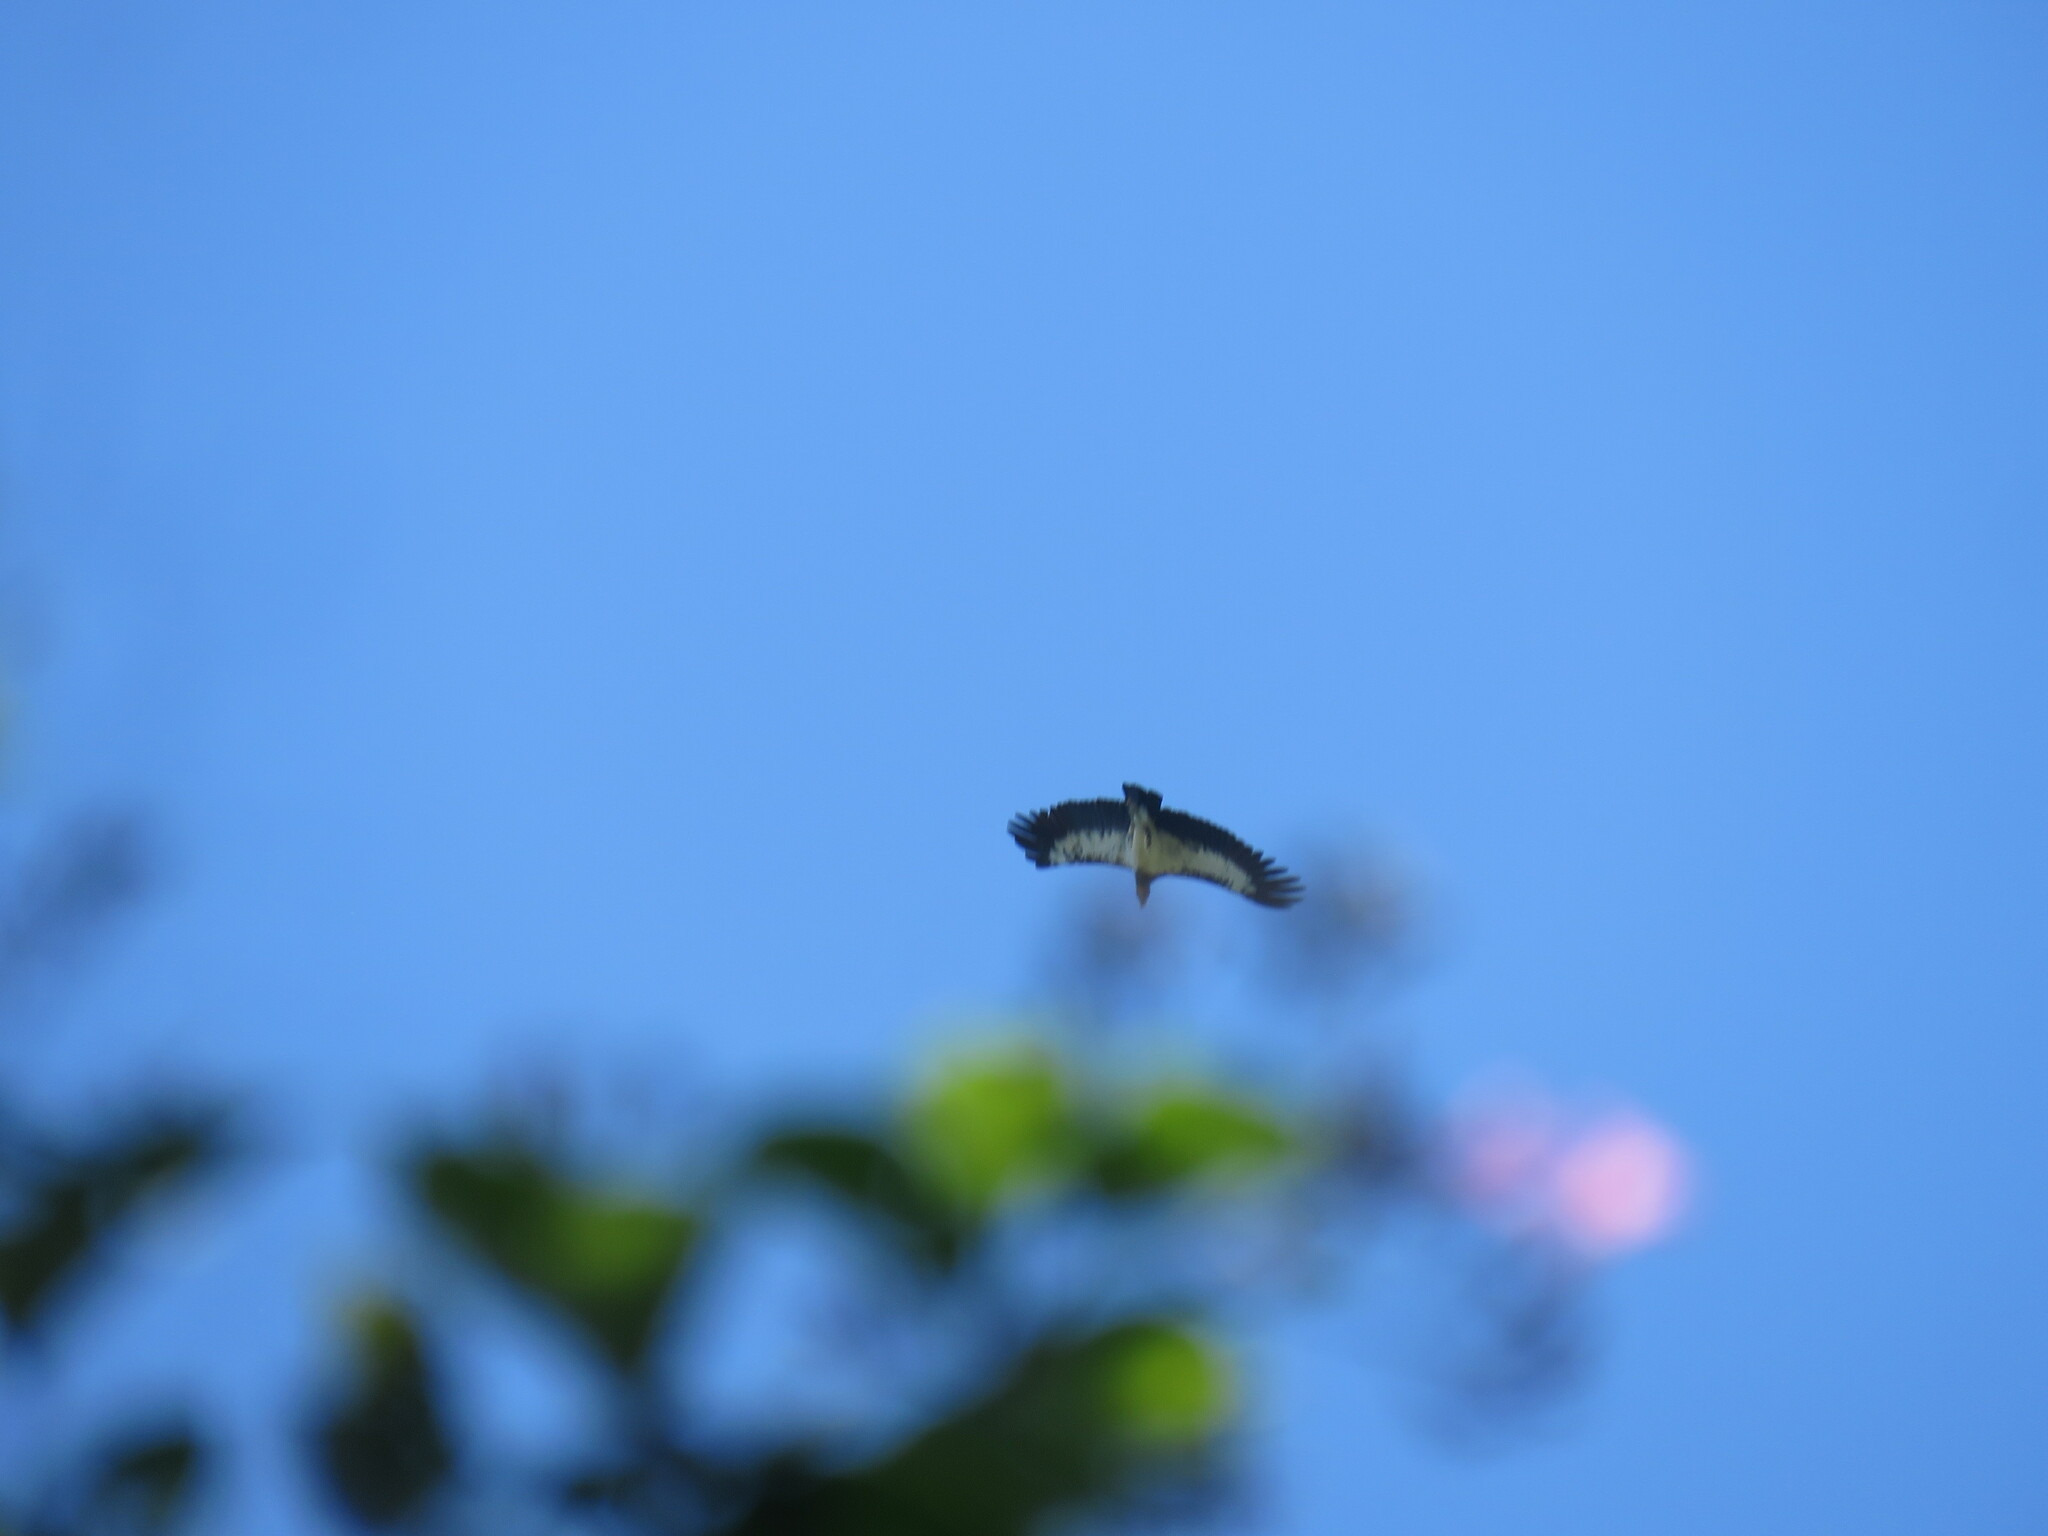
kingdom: Animalia
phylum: Chordata
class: Aves
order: Accipitriformes
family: Cathartidae
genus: Sarcoramphus
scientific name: Sarcoramphus papa
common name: King vulture
